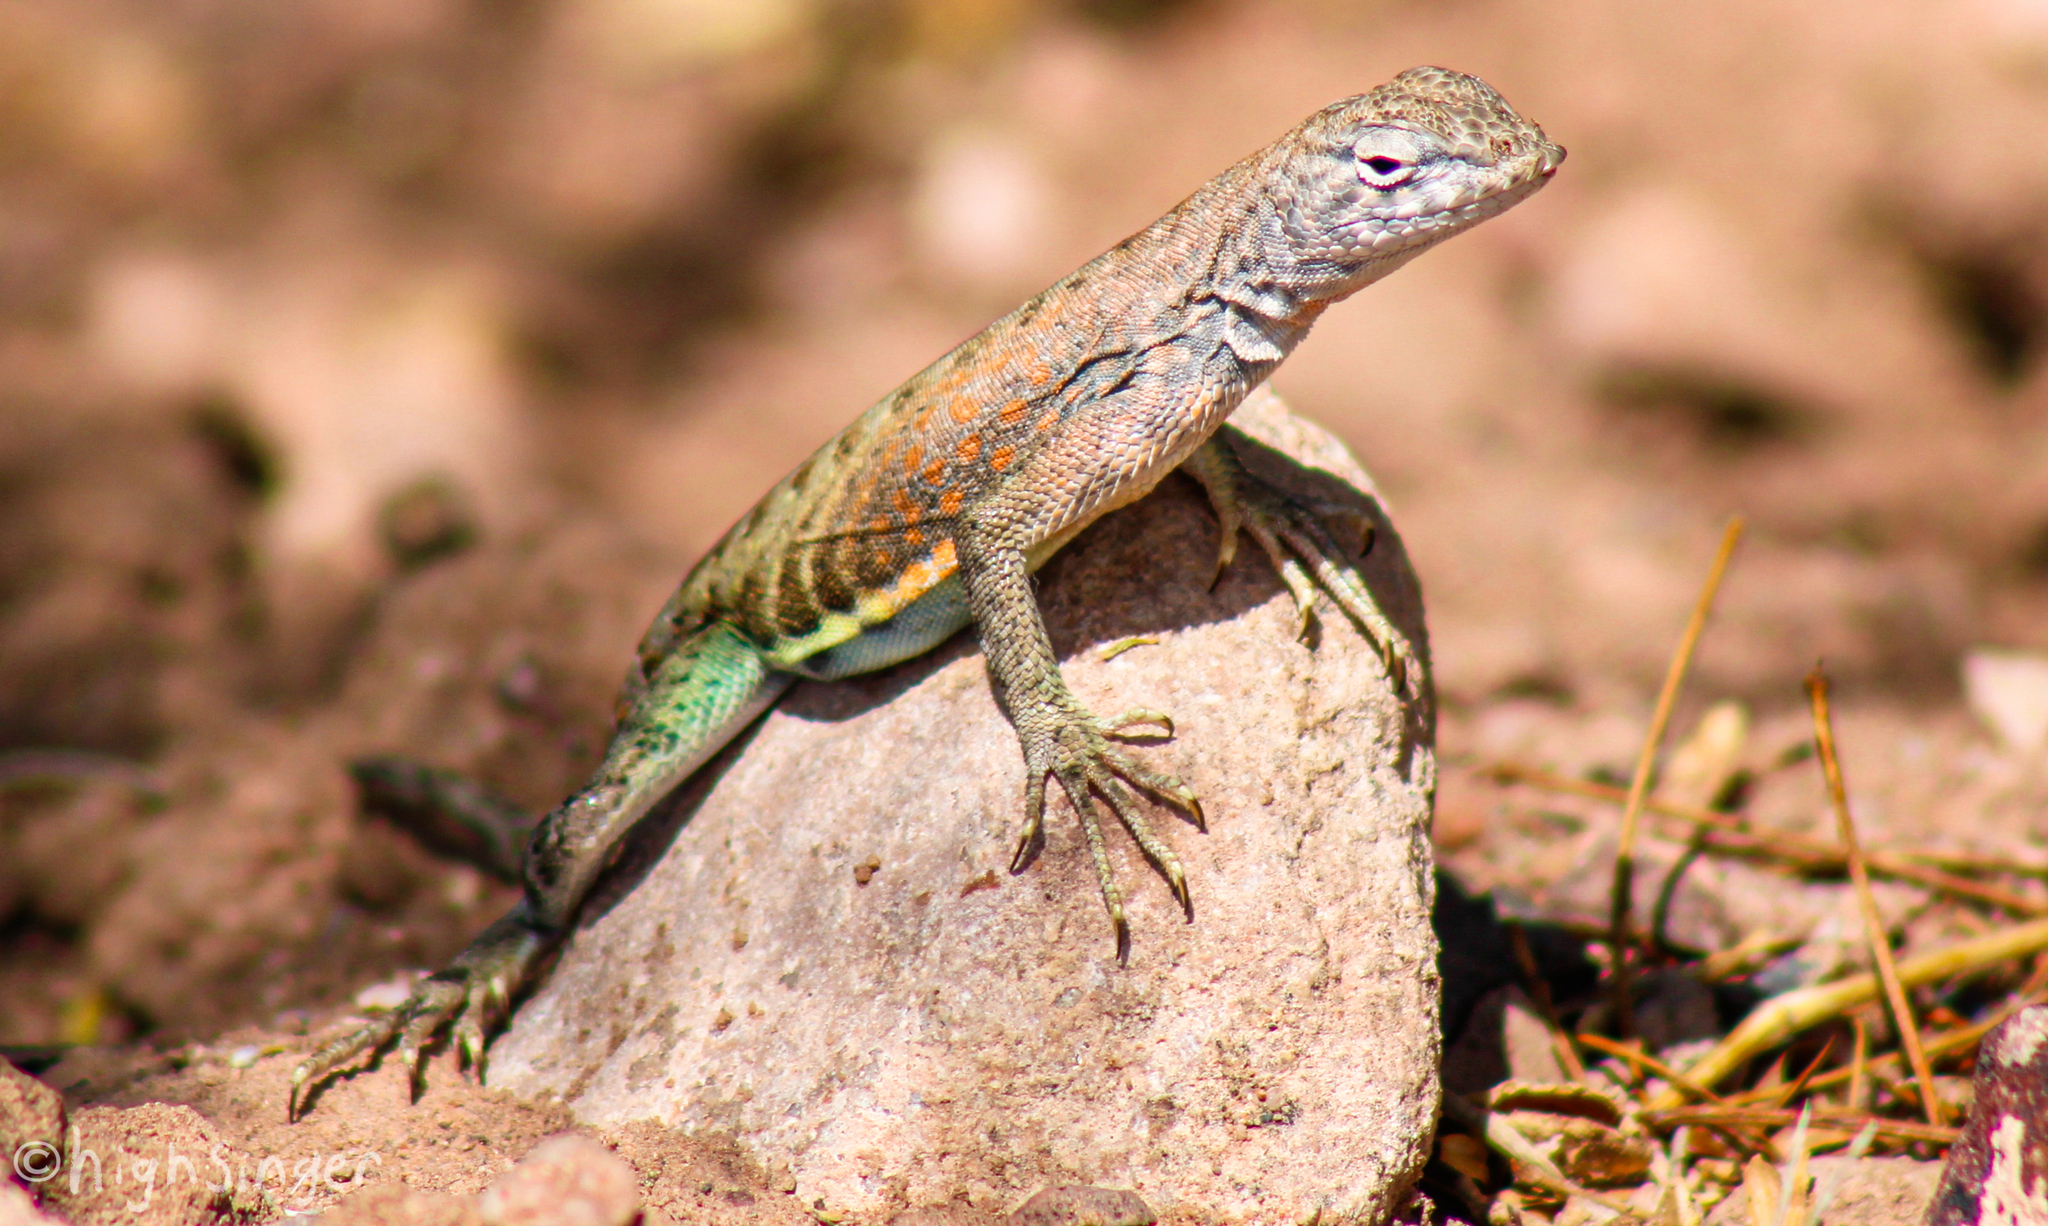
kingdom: Animalia
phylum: Chordata
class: Squamata
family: Phrynosomatidae
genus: Cophosaurus
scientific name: Cophosaurus texanus
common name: Greater earless lizard
